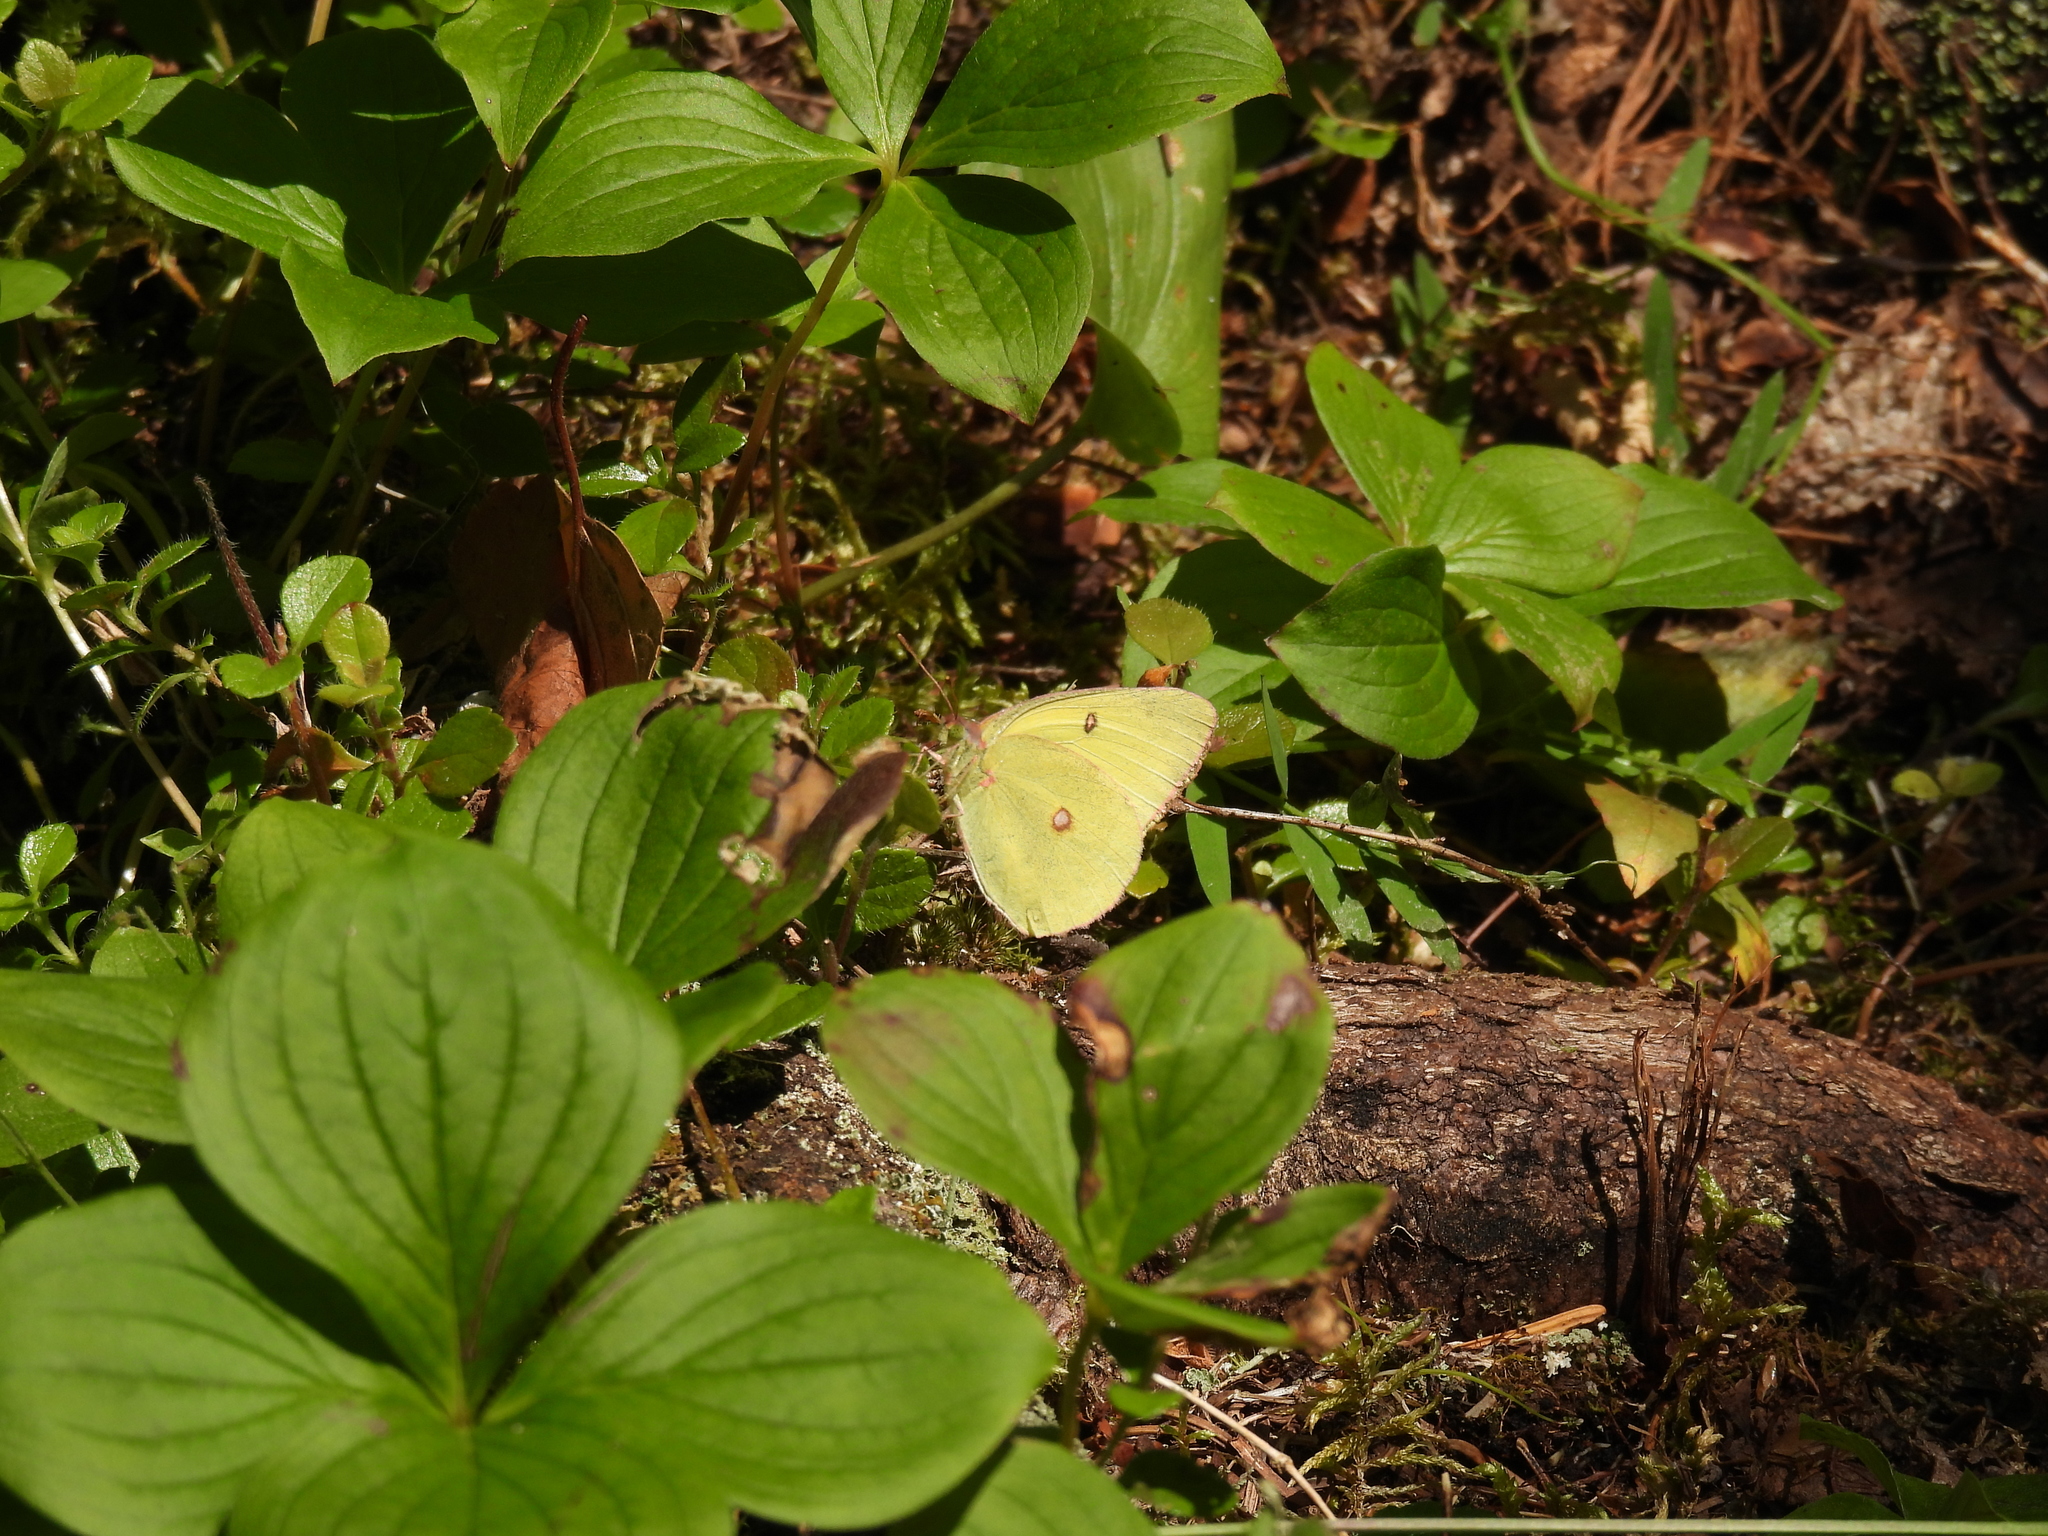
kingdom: Animalia
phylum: Arthropoda
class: Insecta
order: Lepidoptera
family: Pieridae
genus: Colias
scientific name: Colias interior
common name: Pink-edged sulphur
